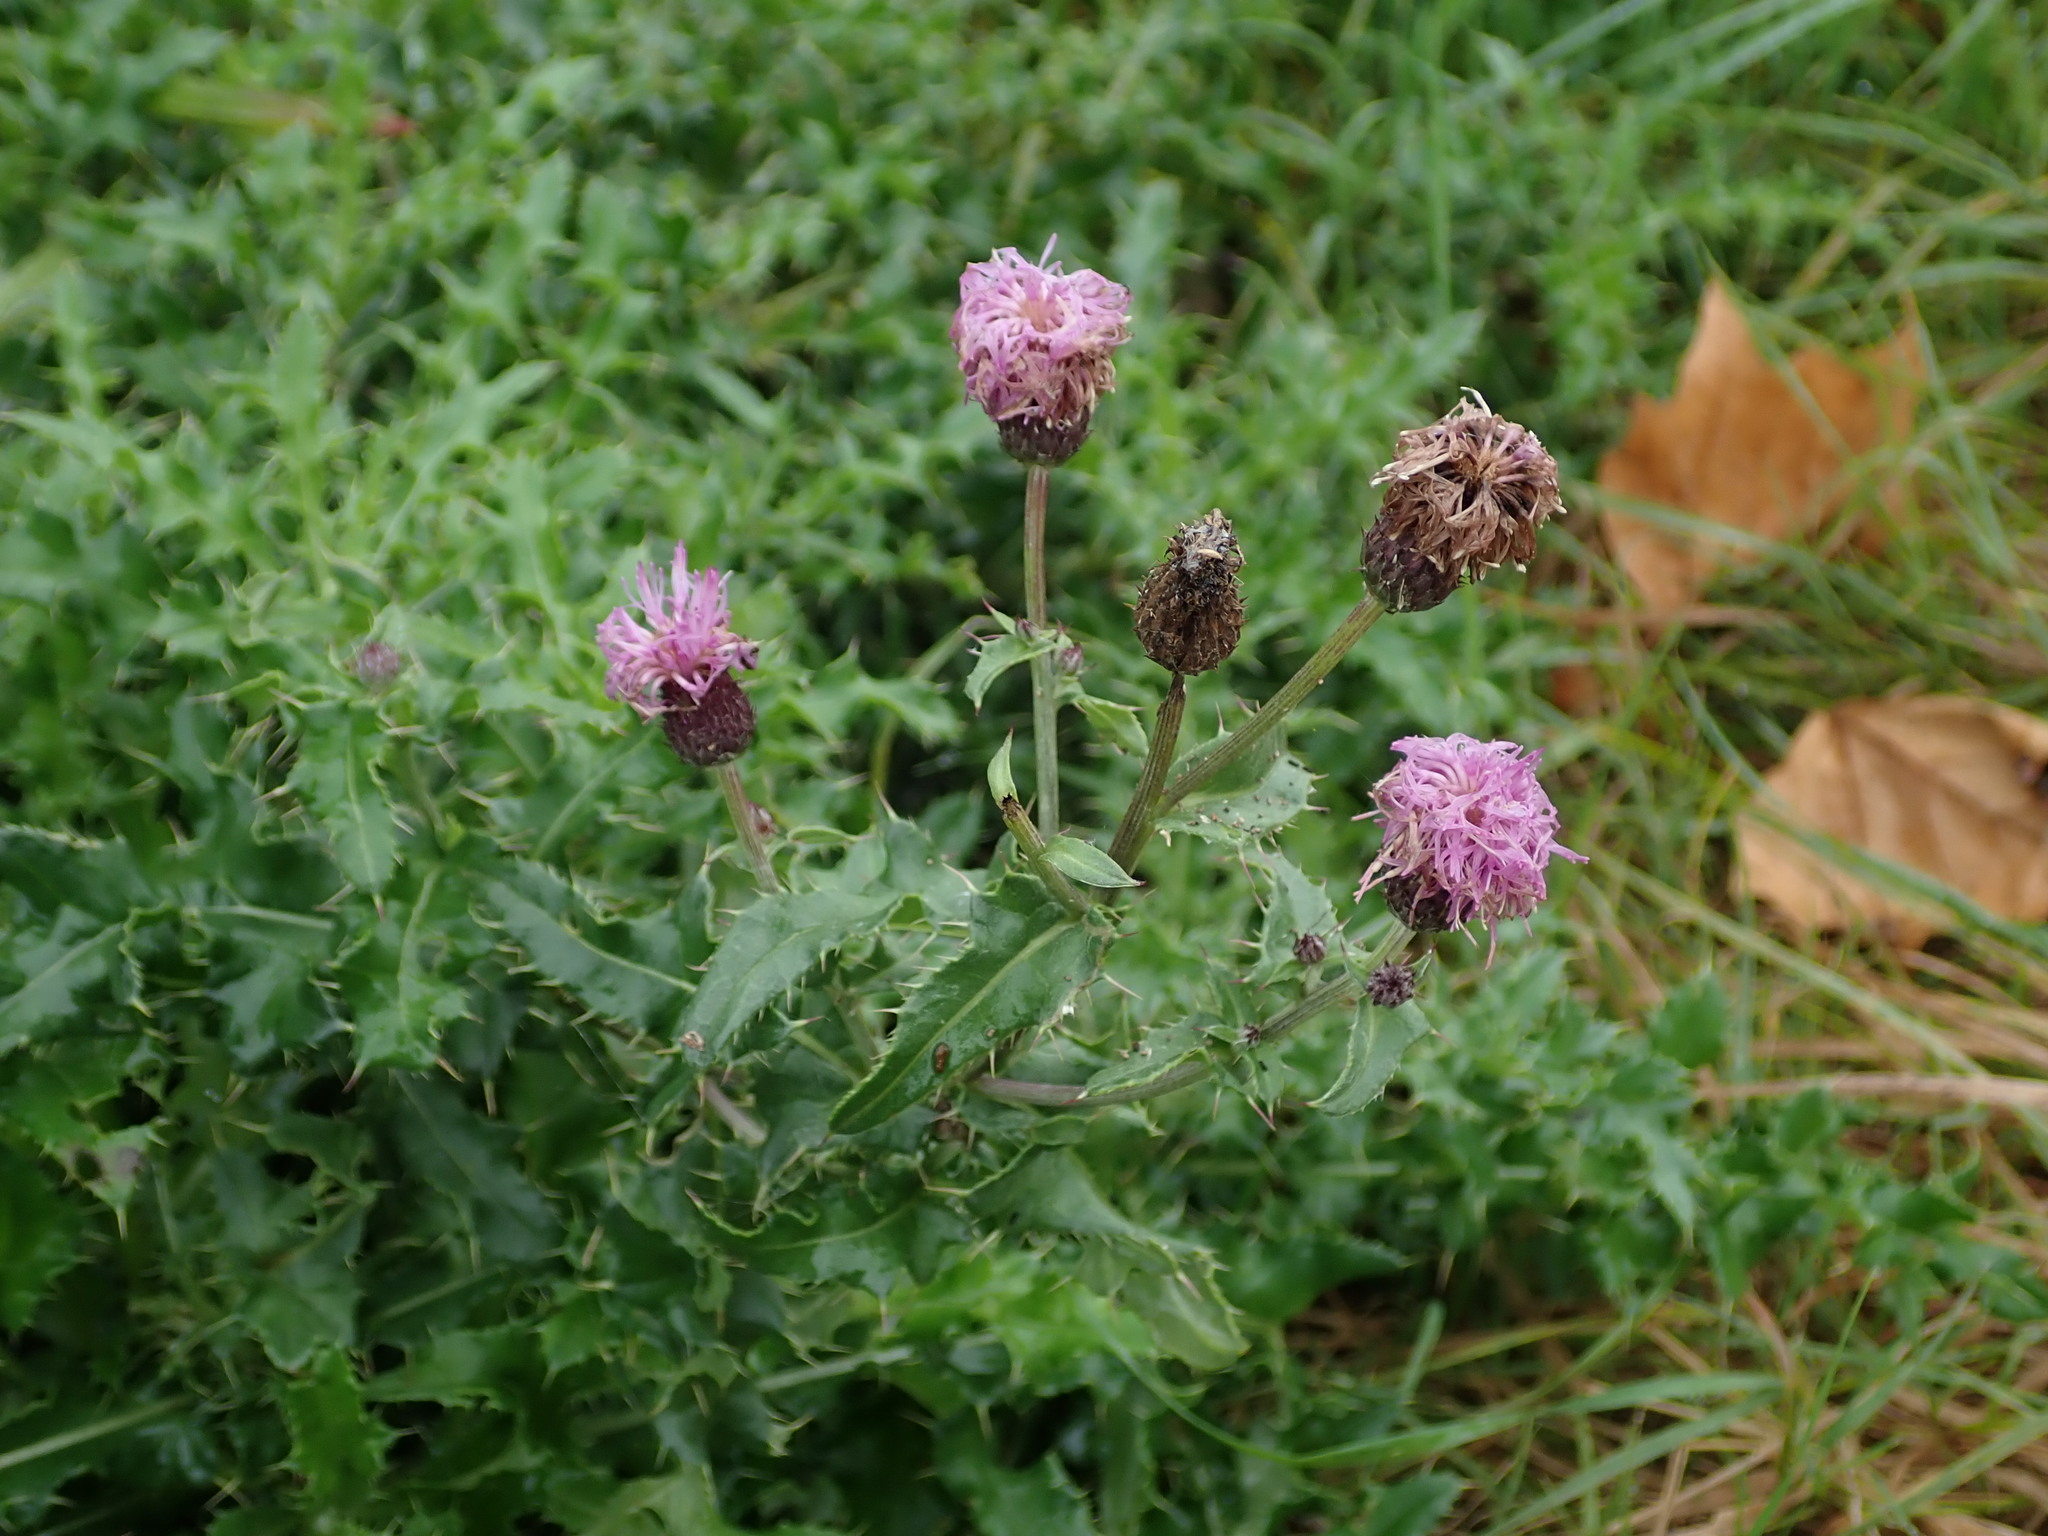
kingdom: Plantae
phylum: Tracheophyta
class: Magnoliopsida
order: Asterales
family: Asteraceae
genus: Cirsium
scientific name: Cirsium arvense
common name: Creeping thistle
